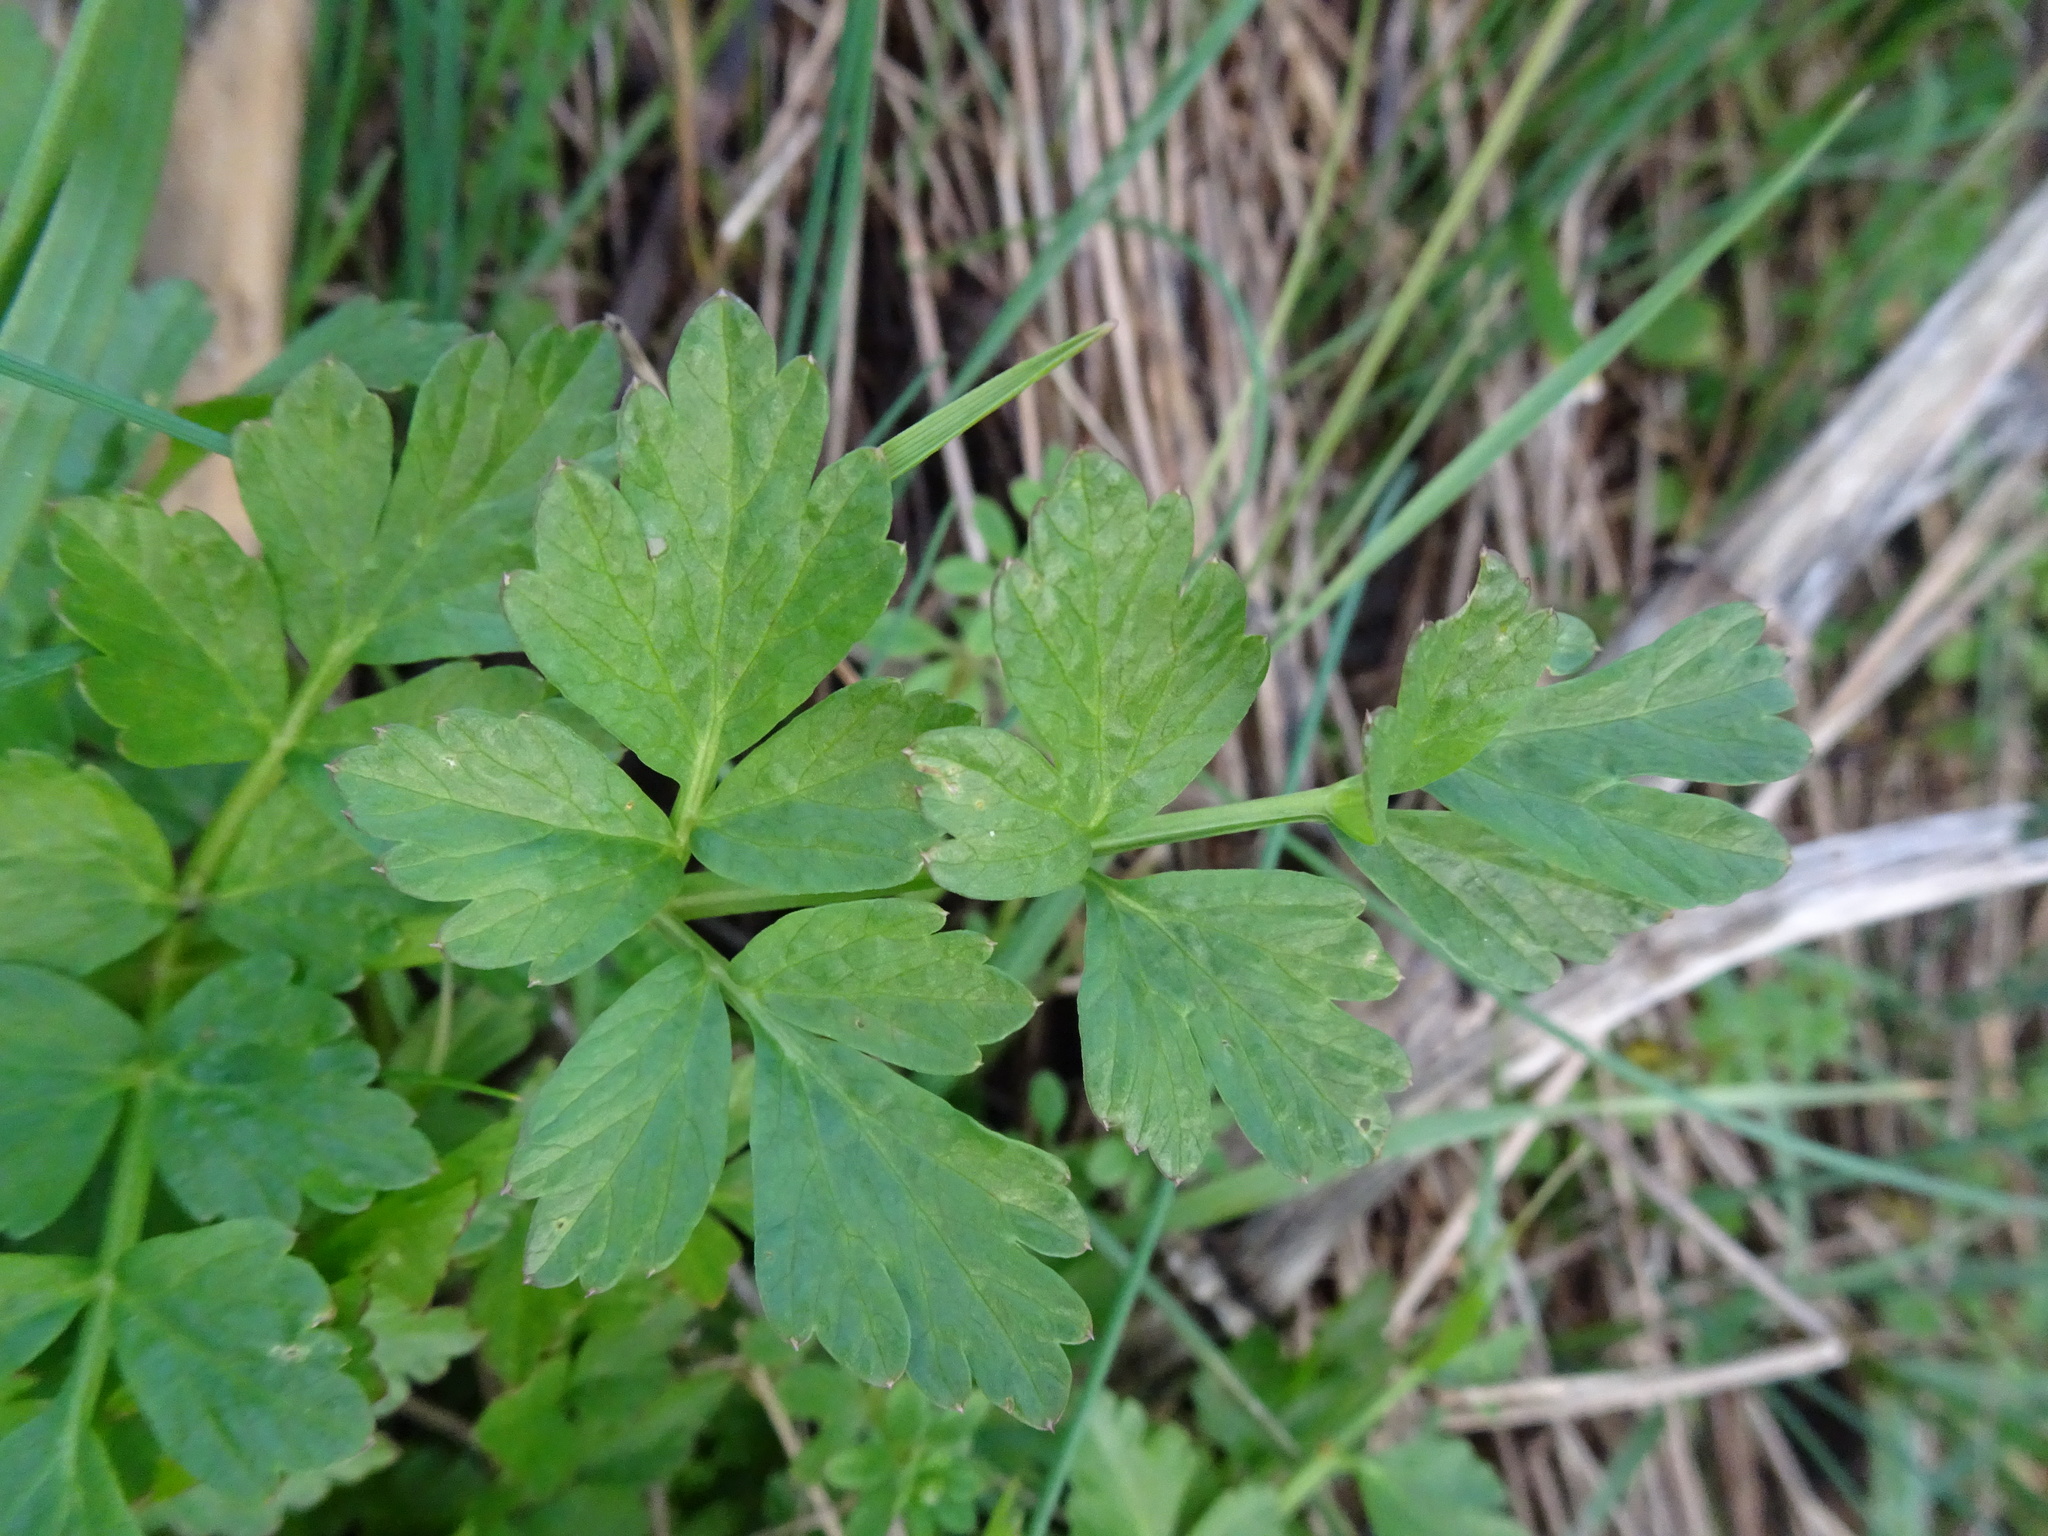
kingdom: Plantae
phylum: Tracheophyta
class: Magnoliopsida
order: Apiales
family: Apiaceae
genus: Oenanthe
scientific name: Oenanthe crocata
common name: Hemlock water-dropwort
